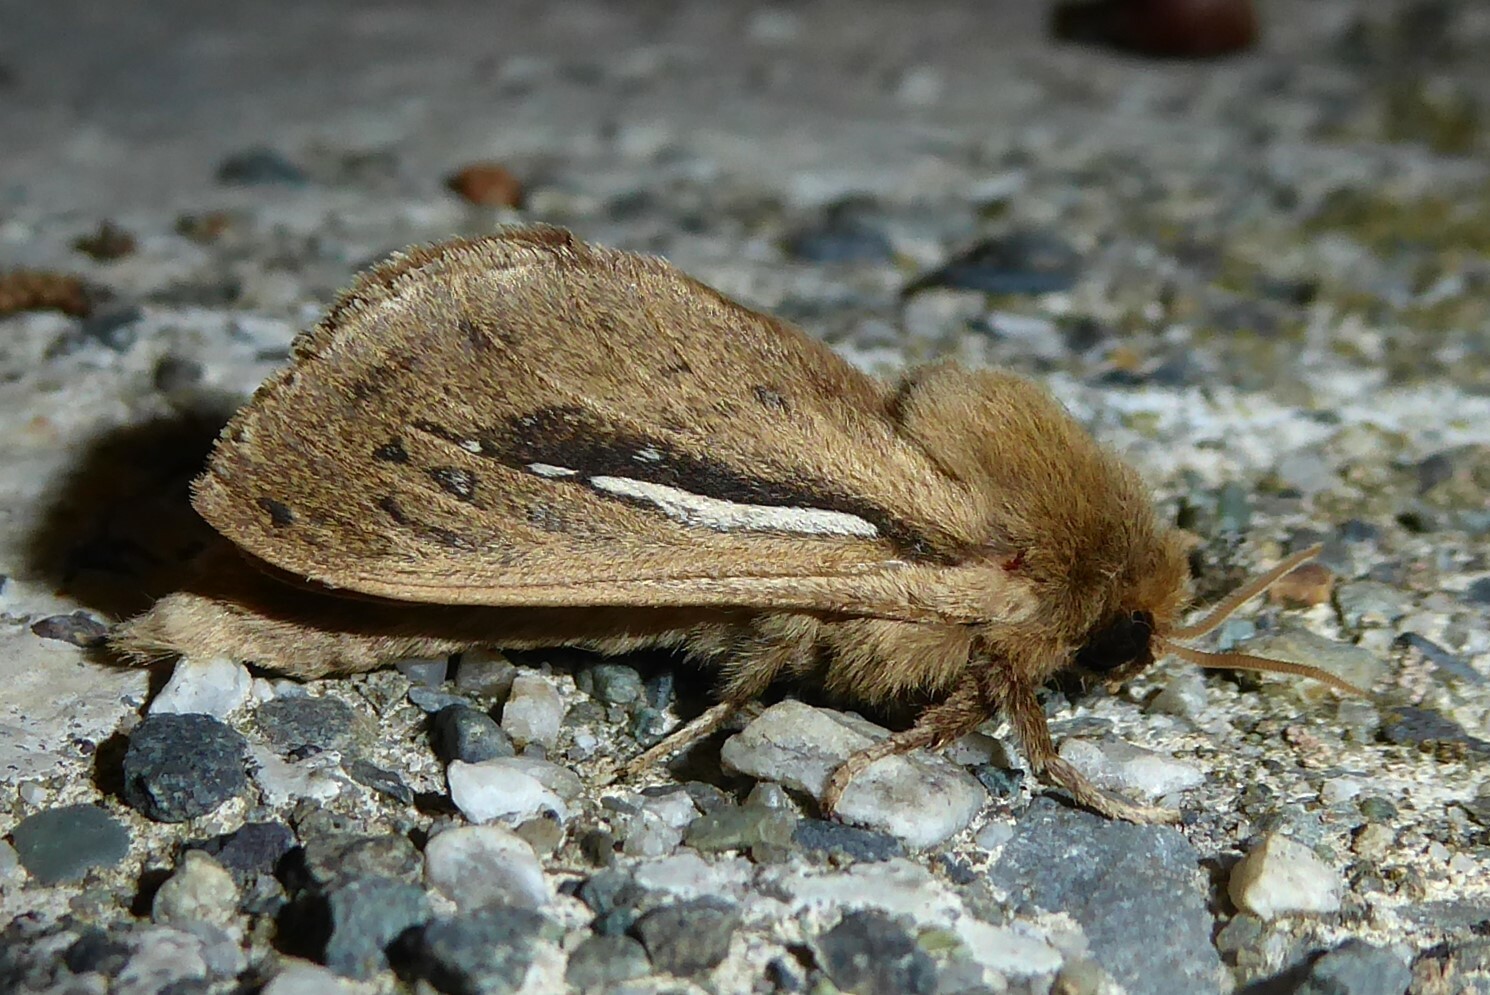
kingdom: Animalia
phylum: Arthropoda
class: Insecta
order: Lepidoptera
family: Hepialidae
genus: Wiseana
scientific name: Wiseana umbraculatus
